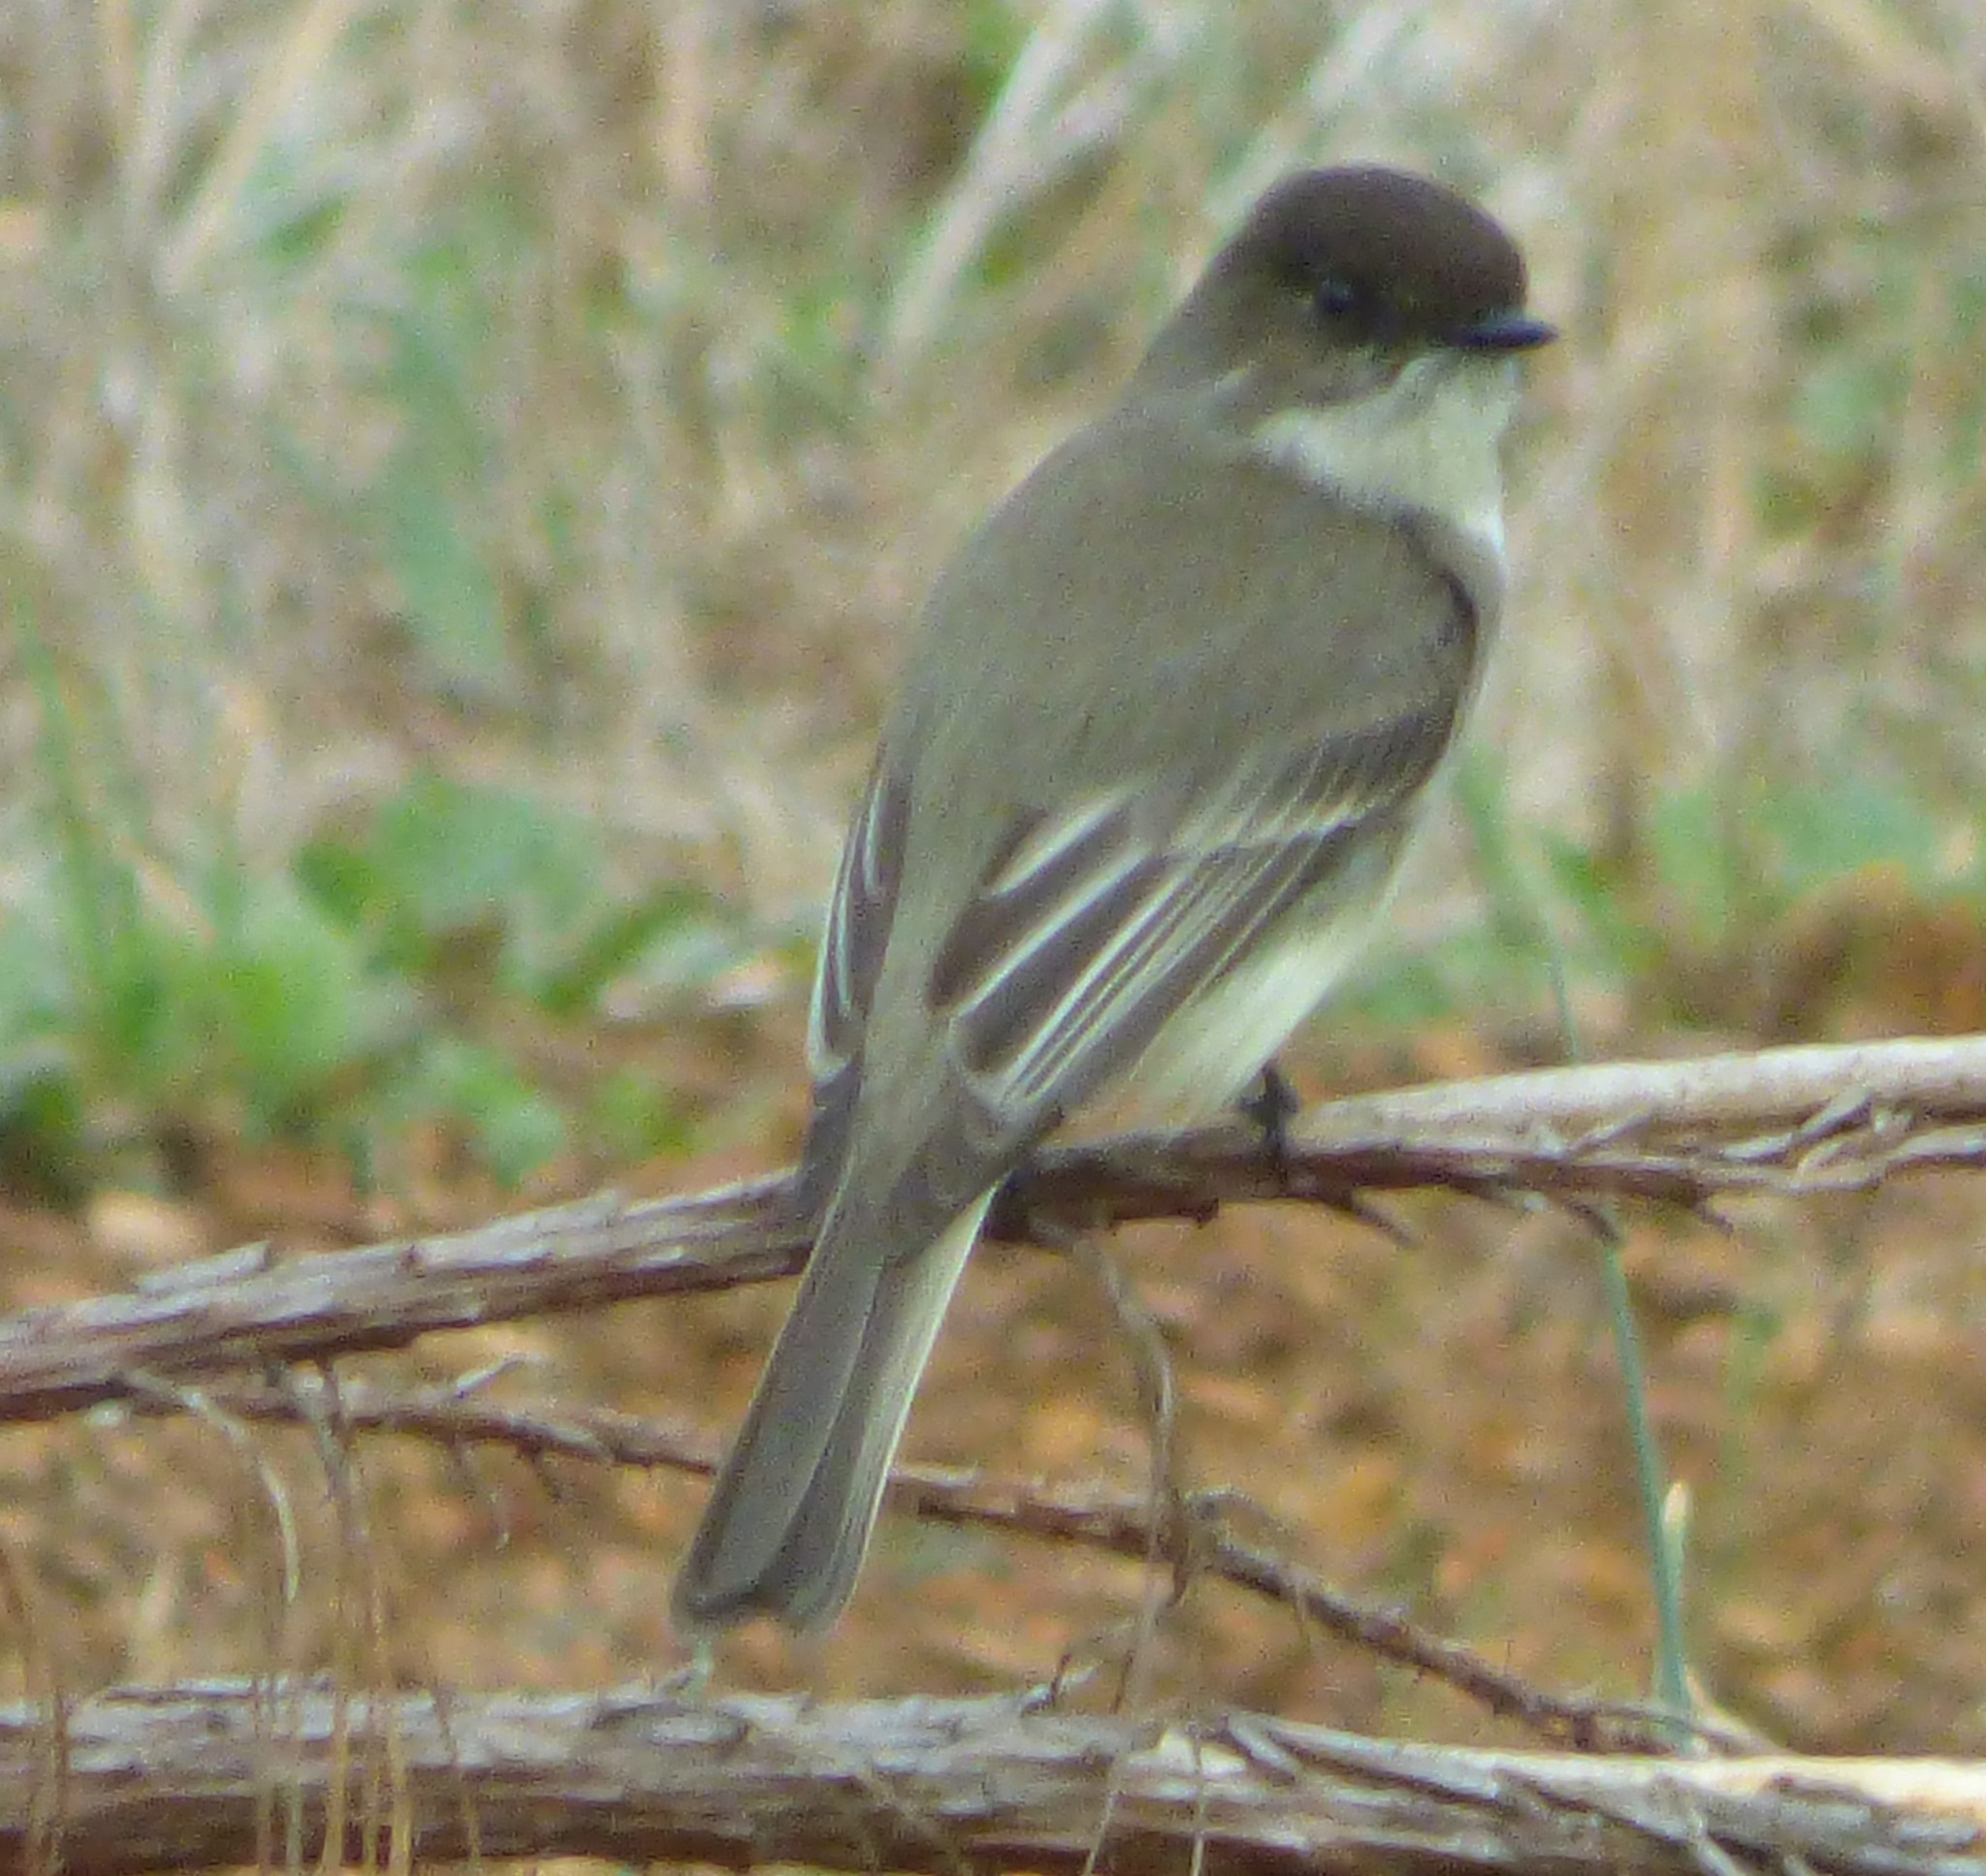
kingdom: Animalia
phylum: Chordata
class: Aves
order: Passeriformes
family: Tyrannidae
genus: Sayornis
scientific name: Sayornis phoebe
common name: Eastern phoebe
